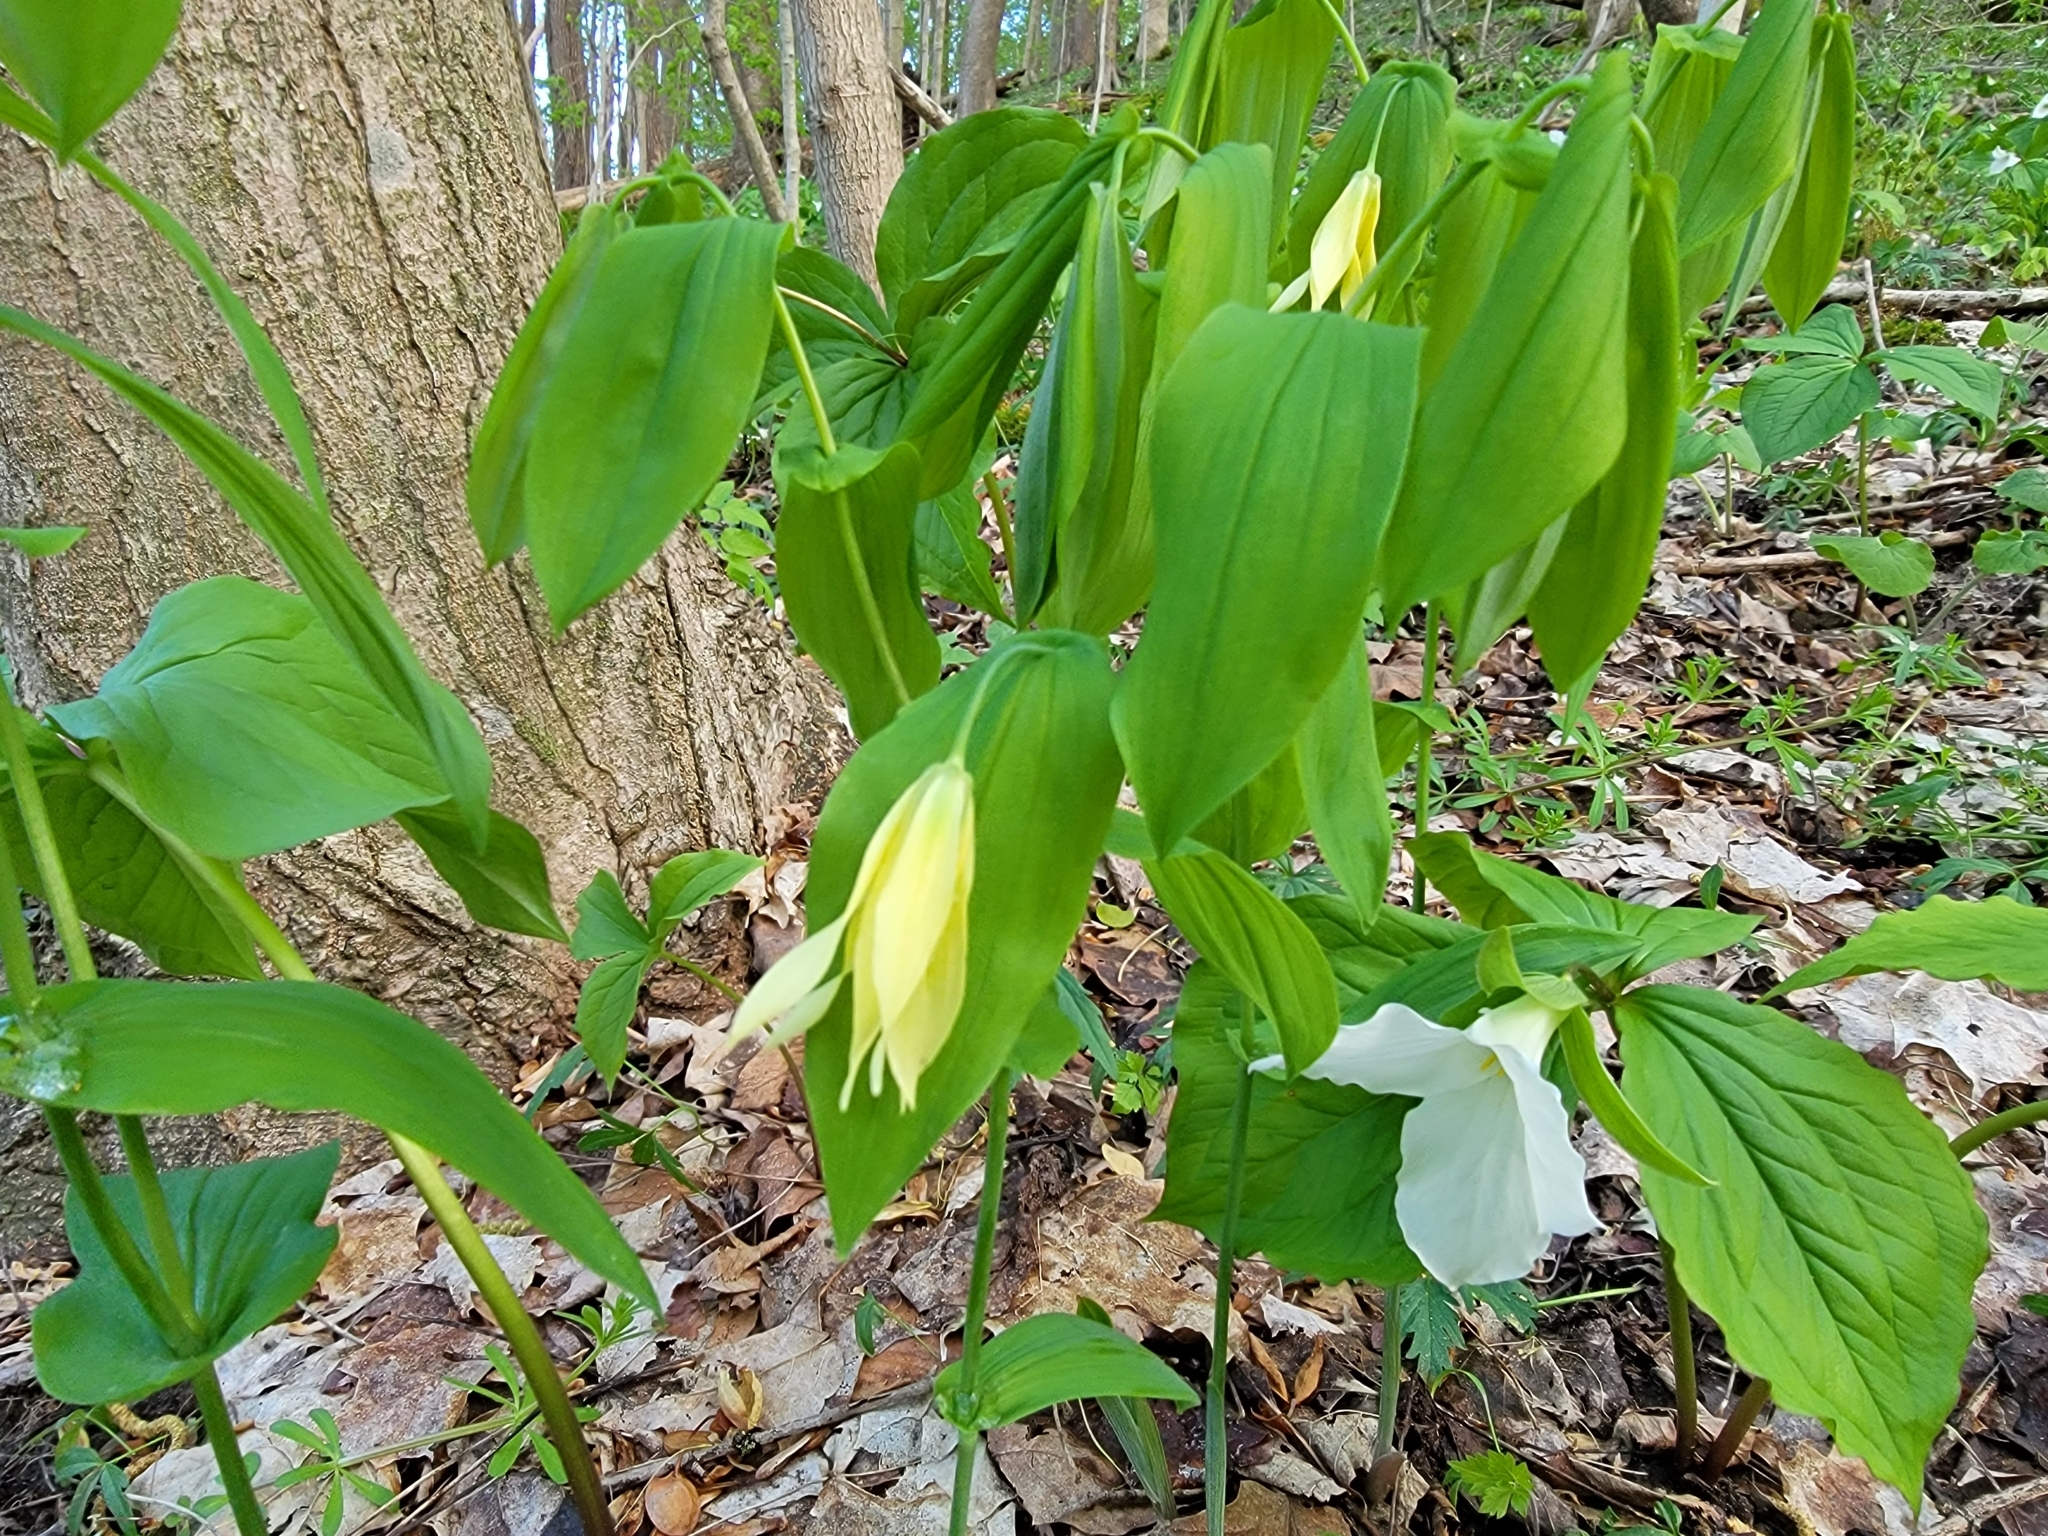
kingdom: Plantae
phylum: Tracheophyta
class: Liliopsida
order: Liliales
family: Colchicaceae
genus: Uvularia
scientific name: Uvularia grandiflora
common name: Bellwort
